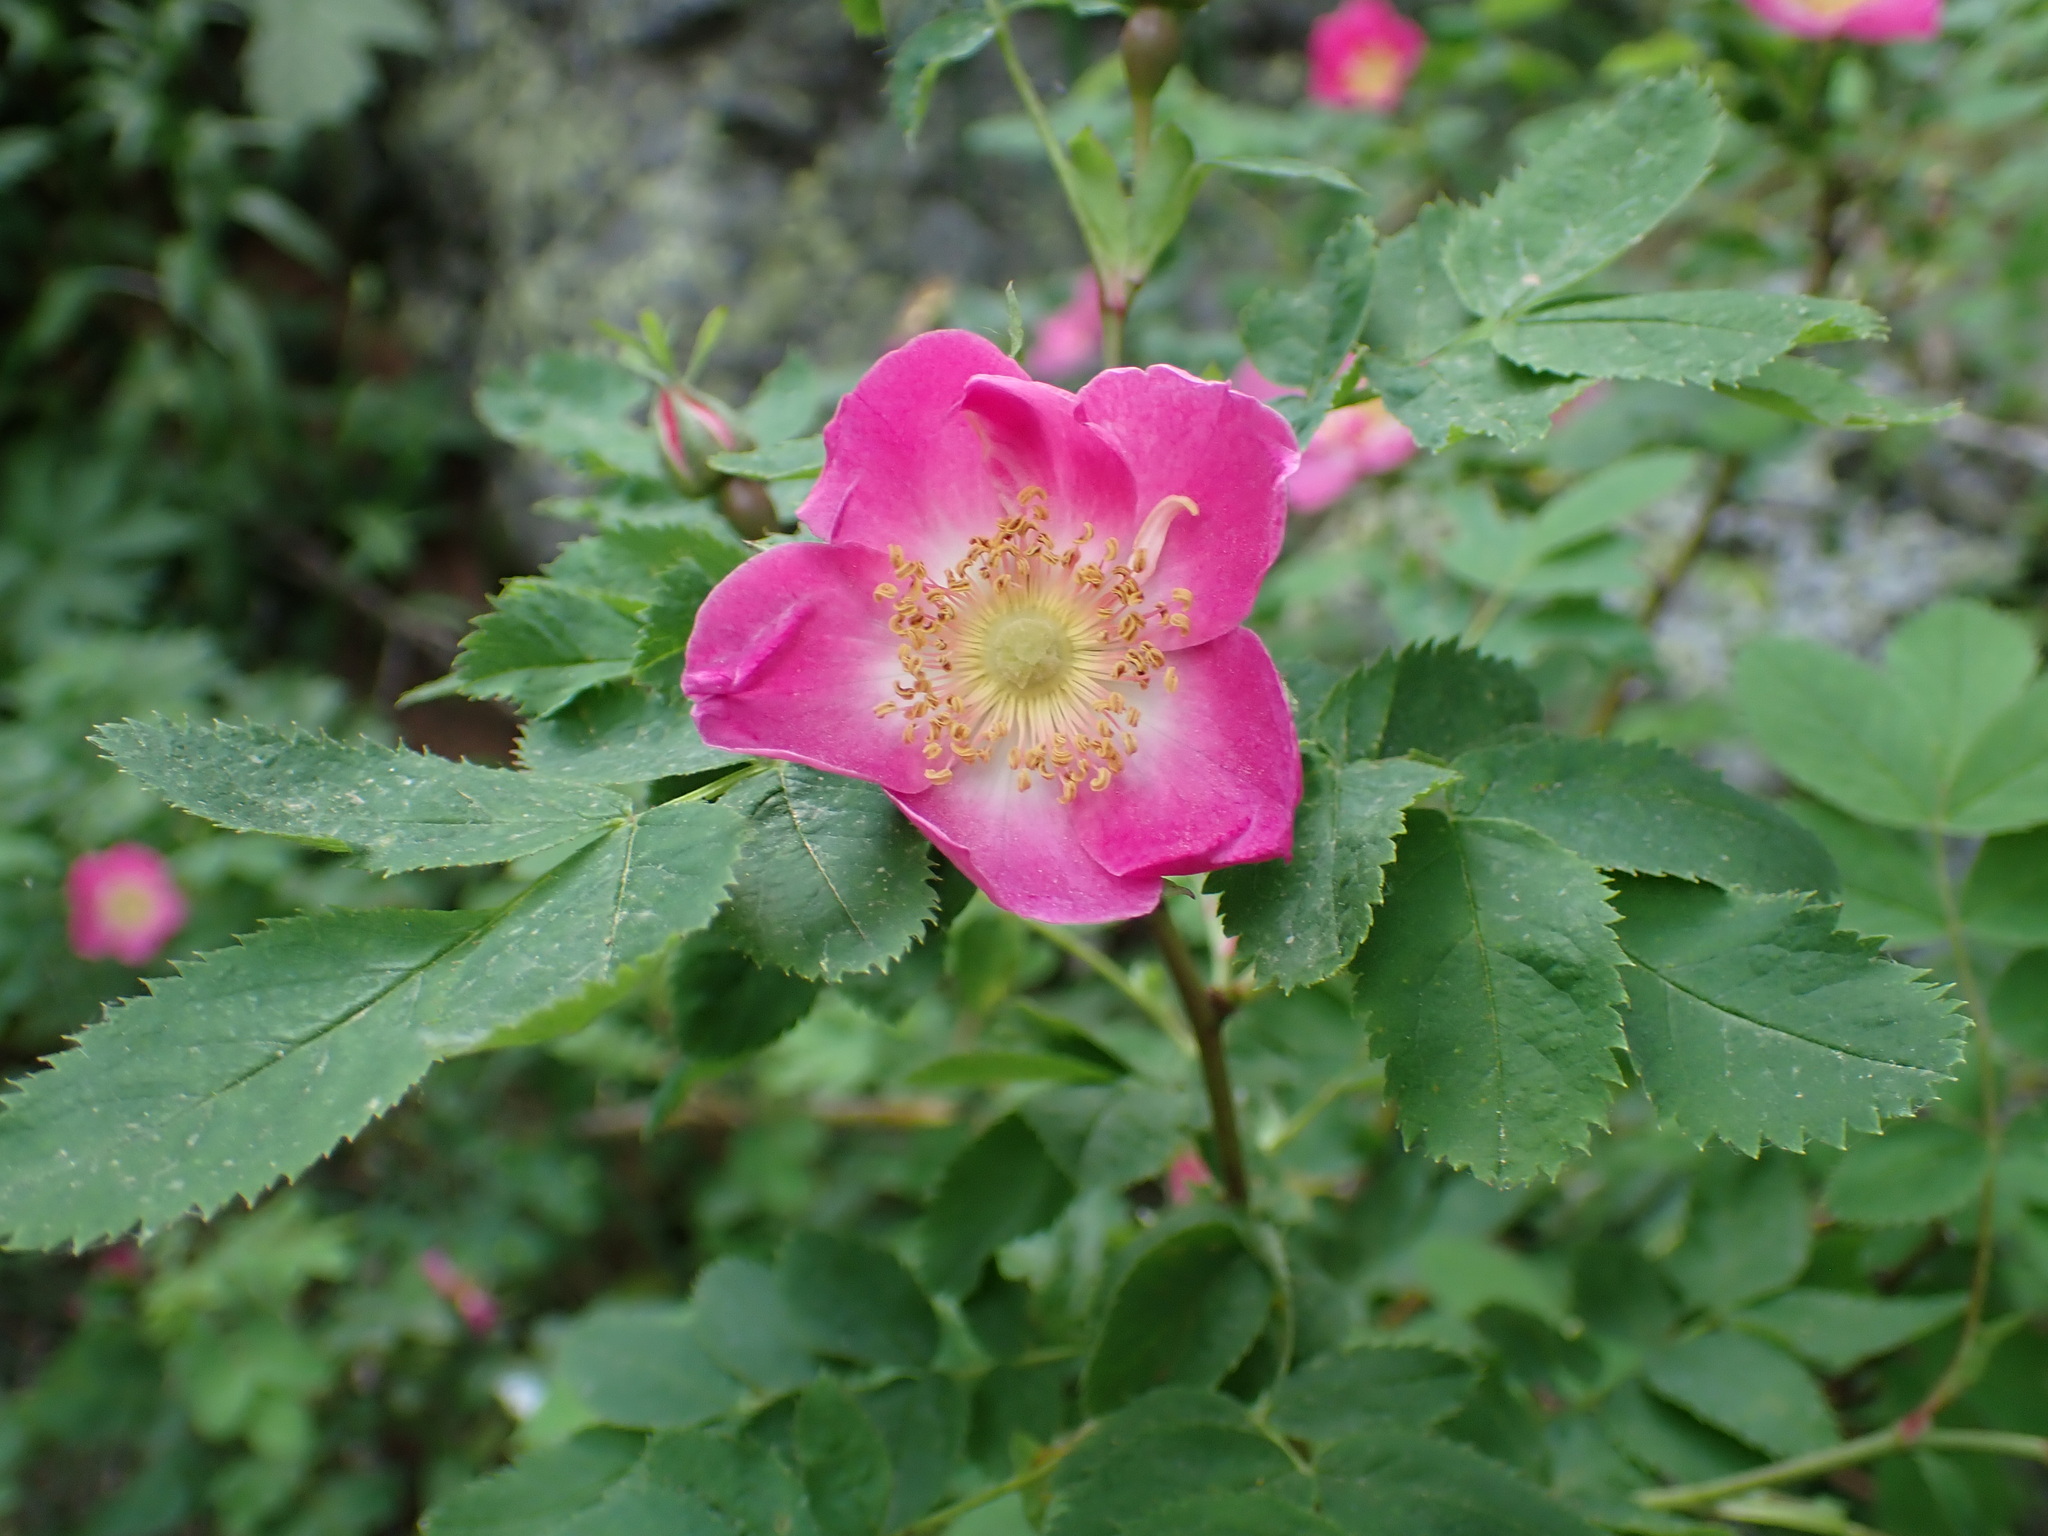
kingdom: Plantae
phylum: Tracheophyta
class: Magnoliopsida
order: Rosales
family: Rosaceae
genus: Rosa
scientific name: Rosa pendulina
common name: Alpine rose
